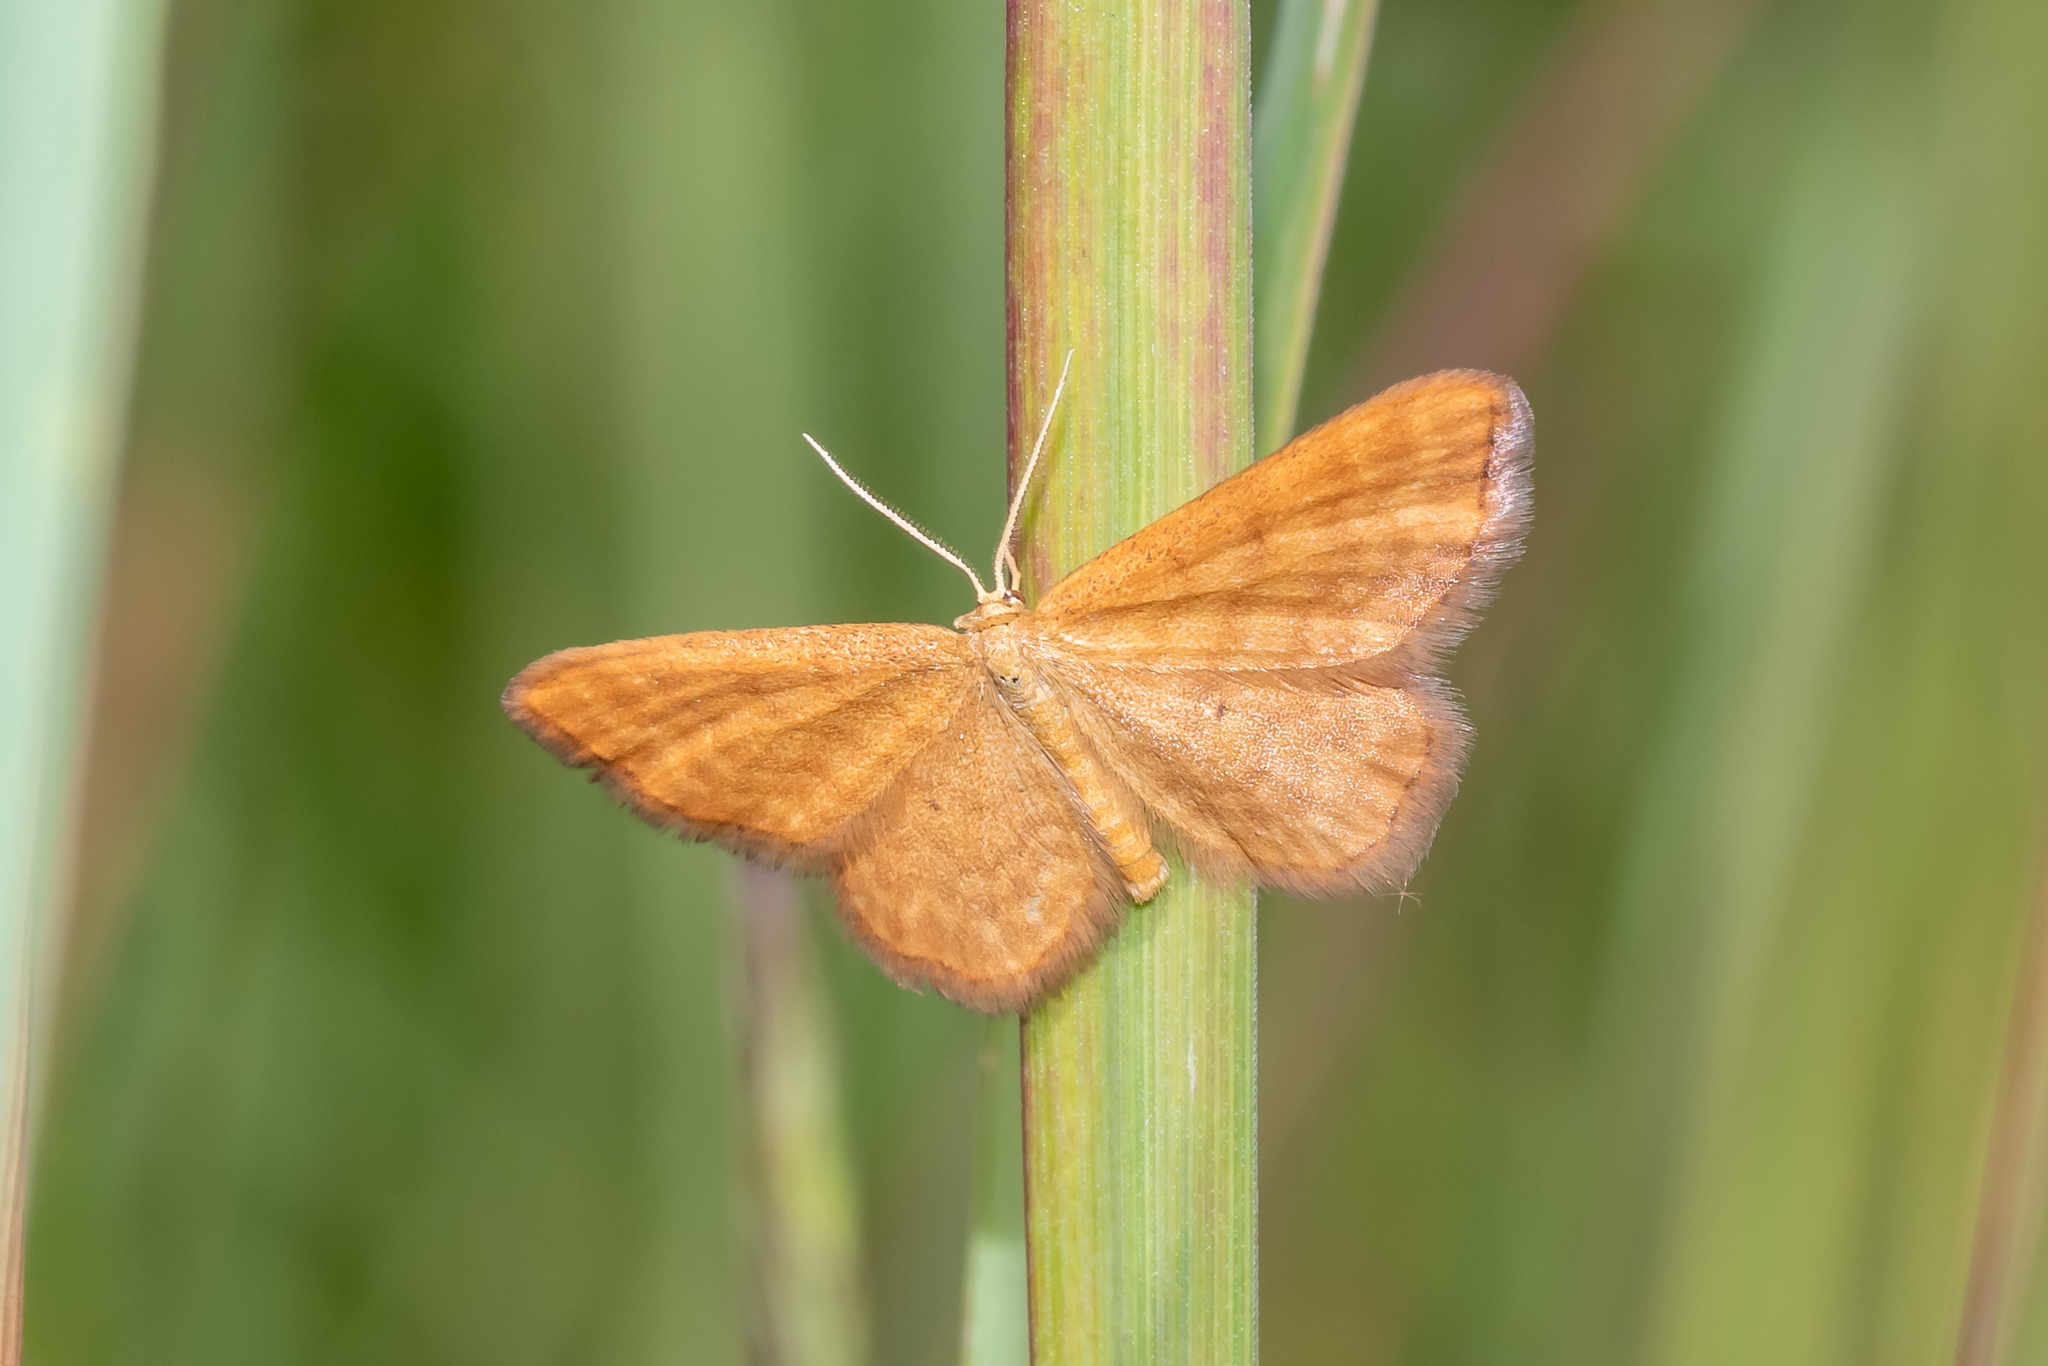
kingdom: Animalia
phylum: Arthropoda
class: Insecta
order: Lepidoptera
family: Geometridae
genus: Idaea
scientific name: Idaea serpentata
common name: Ochraceous wave
